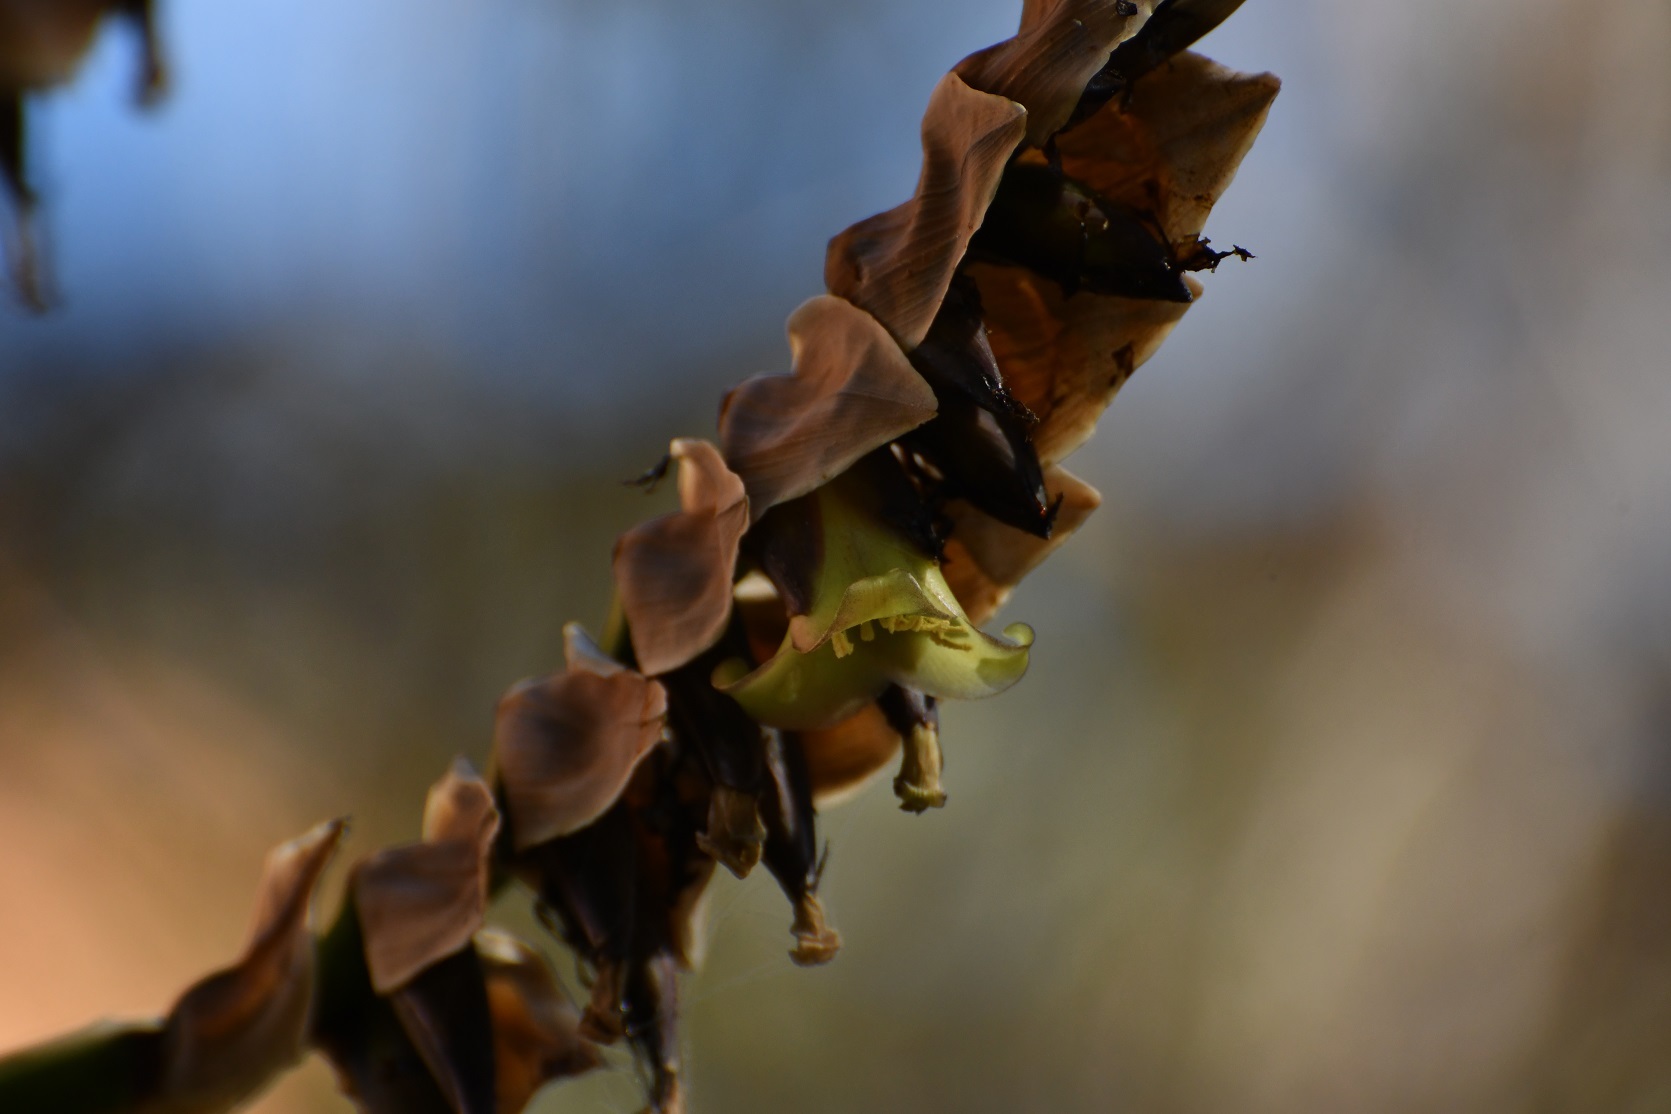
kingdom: Plantae
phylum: Tracheophyta
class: Liliopsida
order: Poales
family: Bromeliaceae
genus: Werauhia
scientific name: Werauhia werckleana
